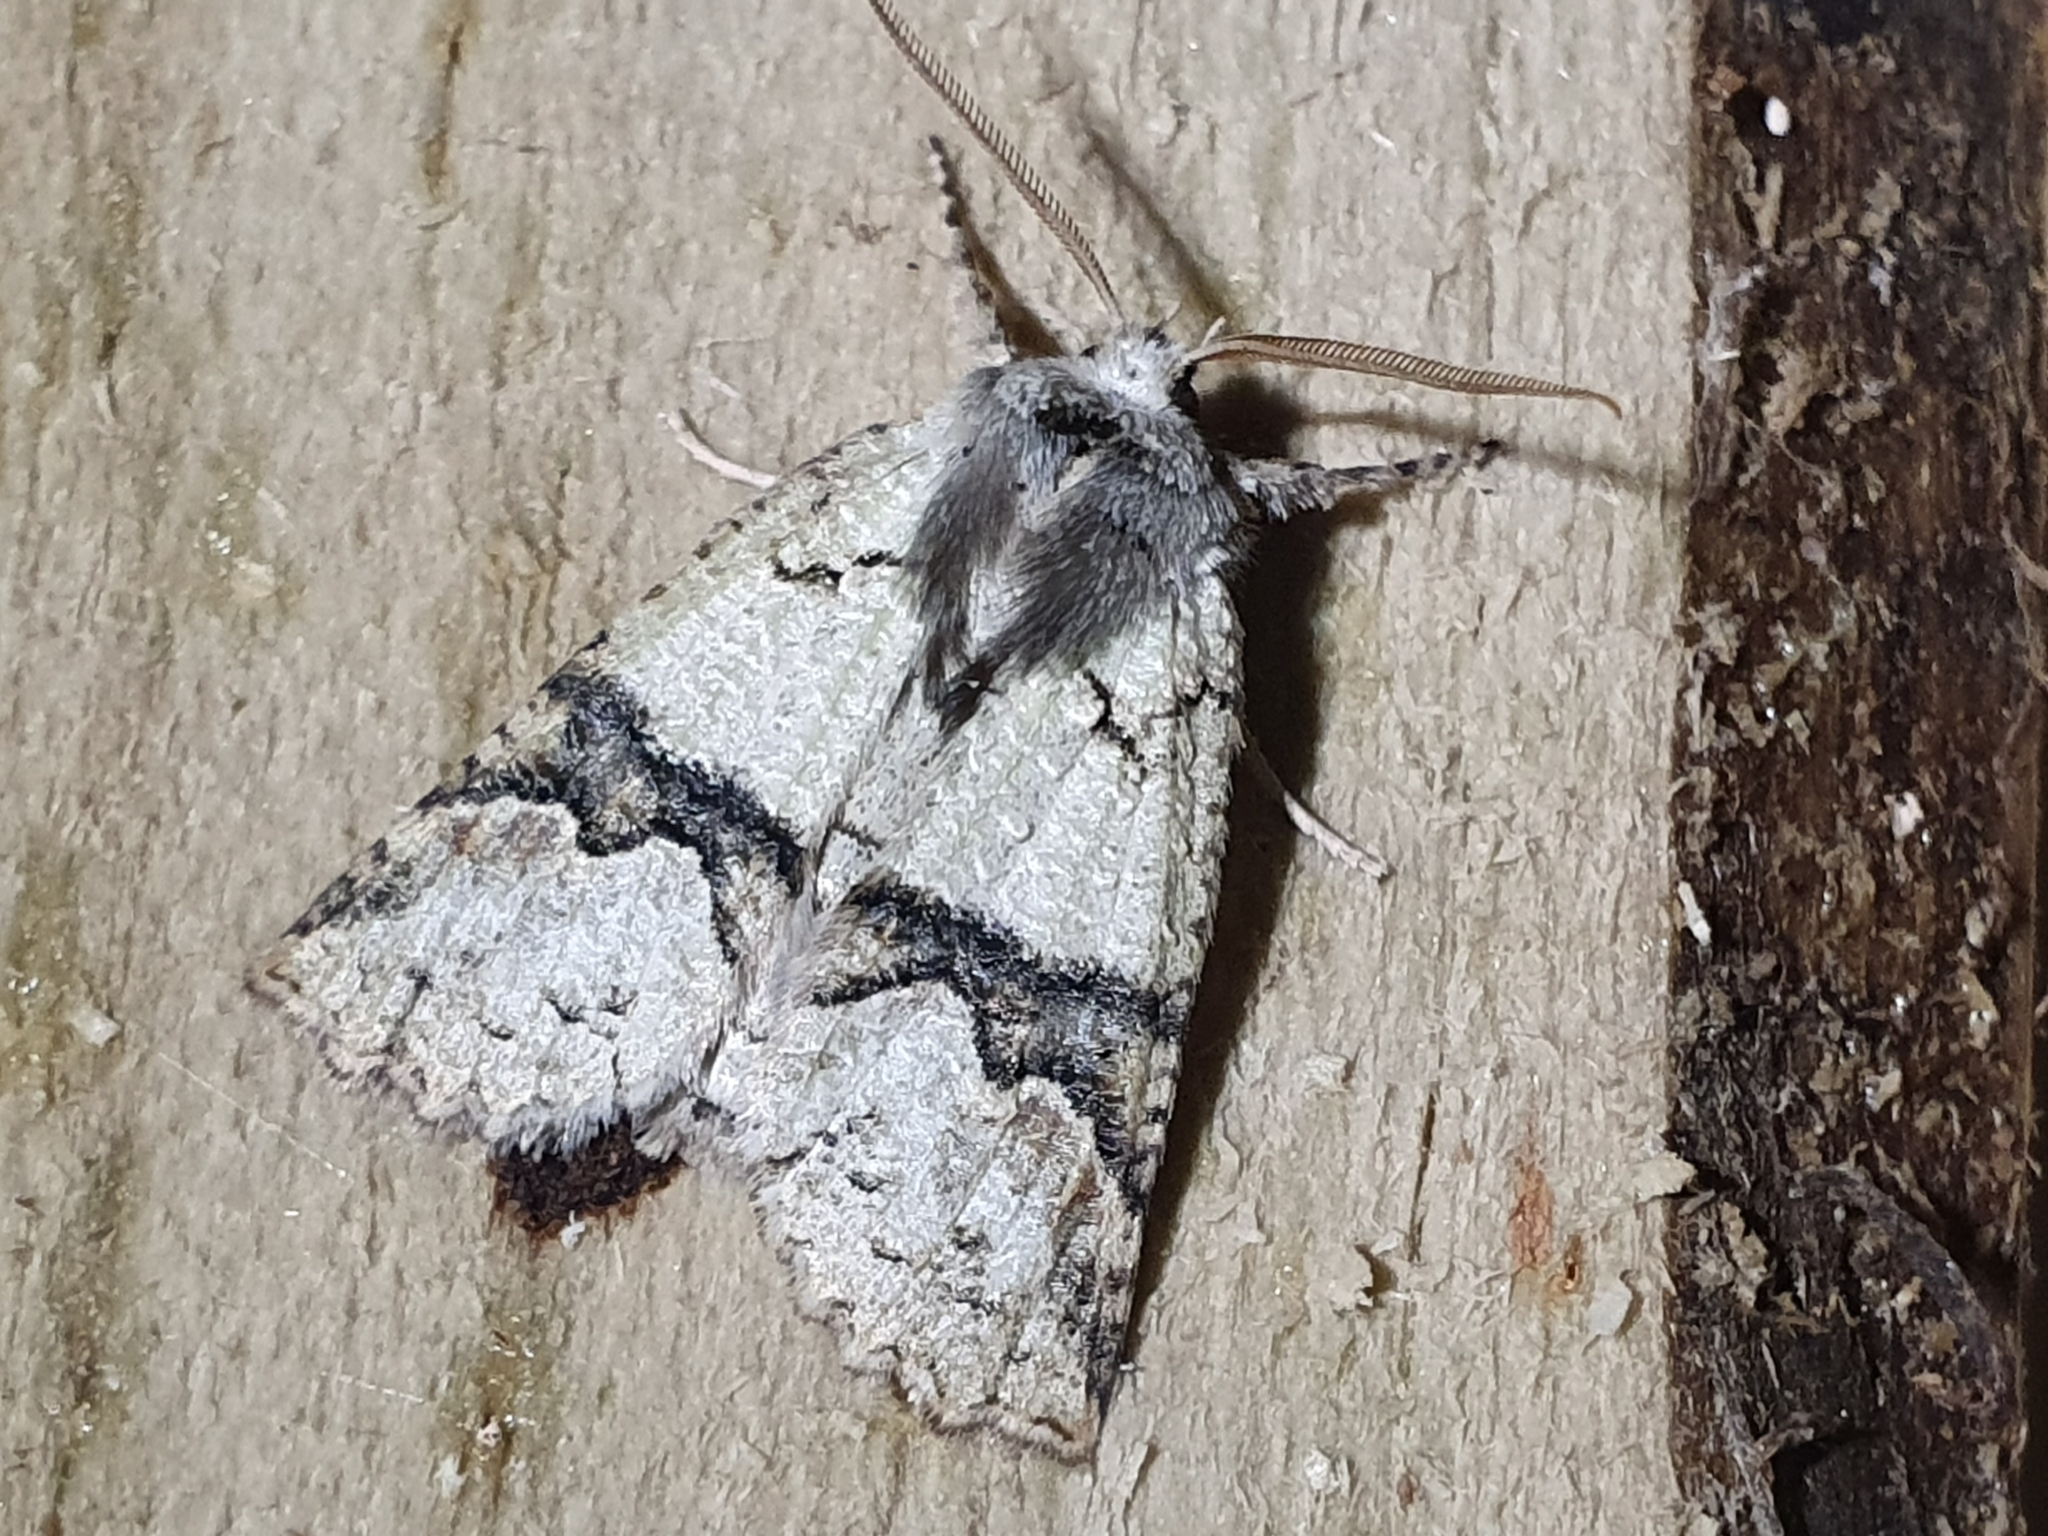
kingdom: Animalia
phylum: Arthropoda
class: Insecta
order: Lepidoptera
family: Geometridae
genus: Declana
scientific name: Declana floccosa
